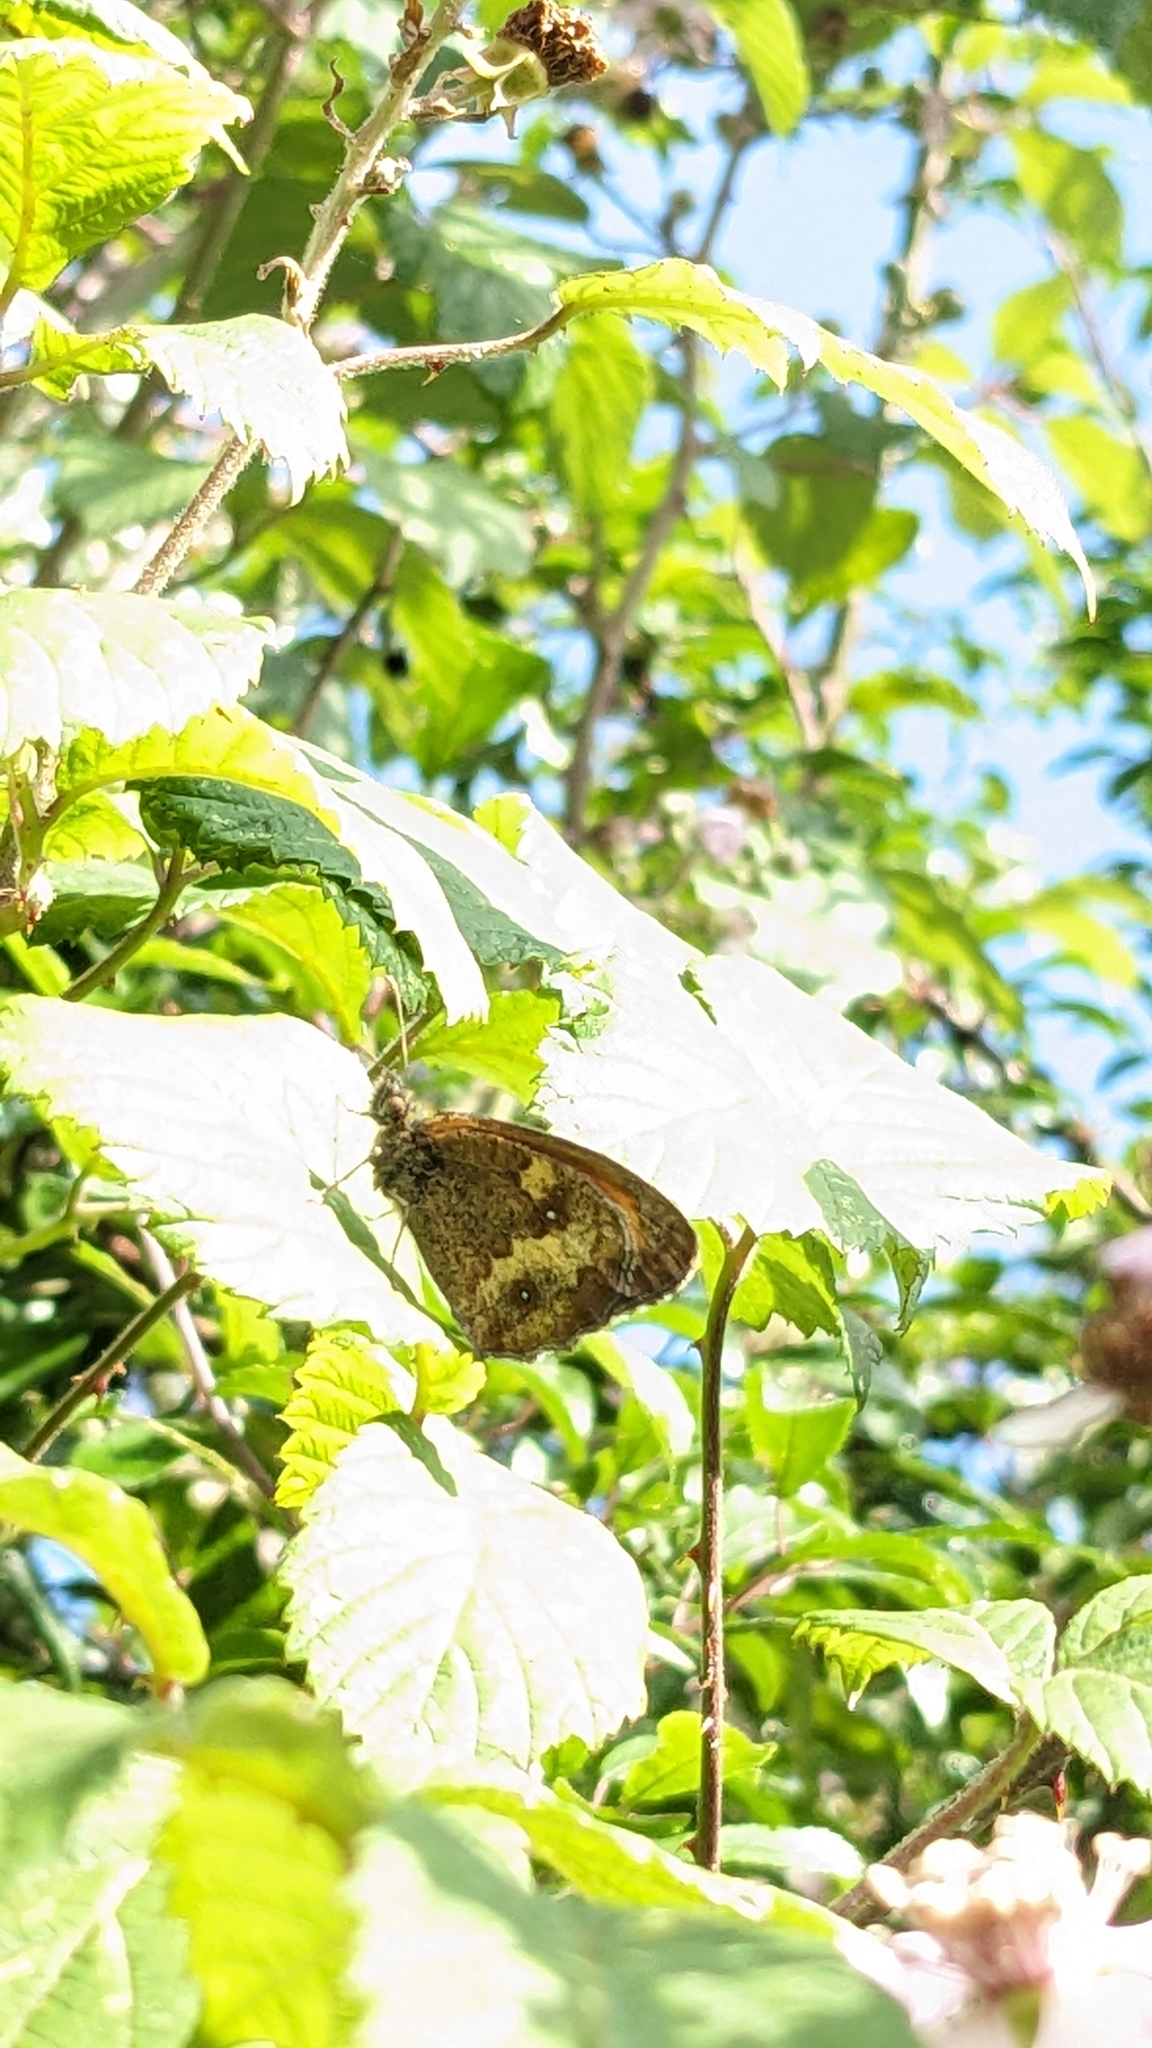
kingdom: Animalia
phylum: Arthropoda
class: Insecta
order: Lepidoptera
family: Nymphalidae
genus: Pyronia
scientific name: Pyronia tithonus
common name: Gatekeeper
